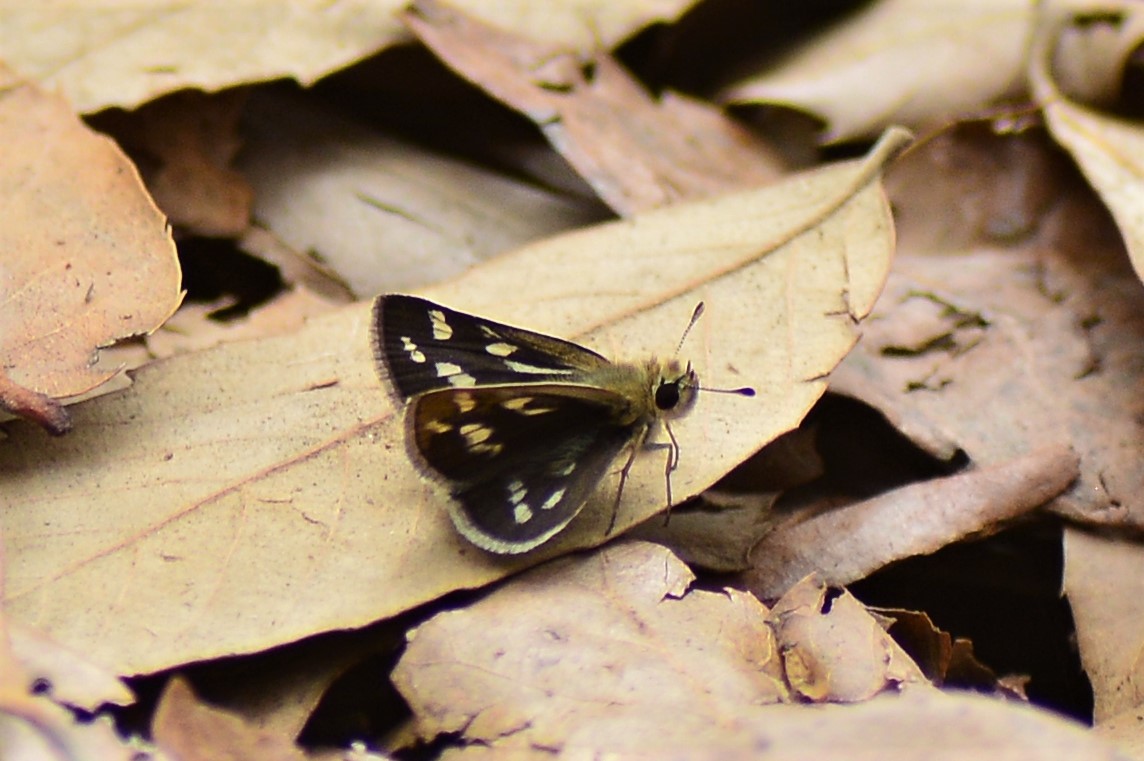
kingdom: Animalia
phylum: Arthropoda
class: Insecta
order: Lepidoptera
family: Hesperiidae
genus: Taractrocera
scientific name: Taractrocera danna
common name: Himalayan grass dart
